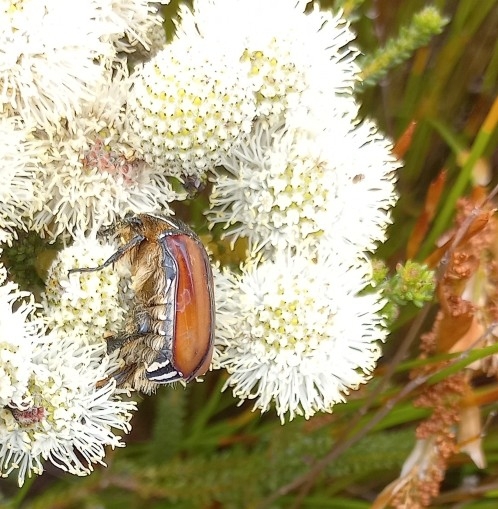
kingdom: Animalia
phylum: Arthropoda
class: Insecta
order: Coleoptera
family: Scarabaeidae
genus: Trichostetha
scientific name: Trichostetha signata
